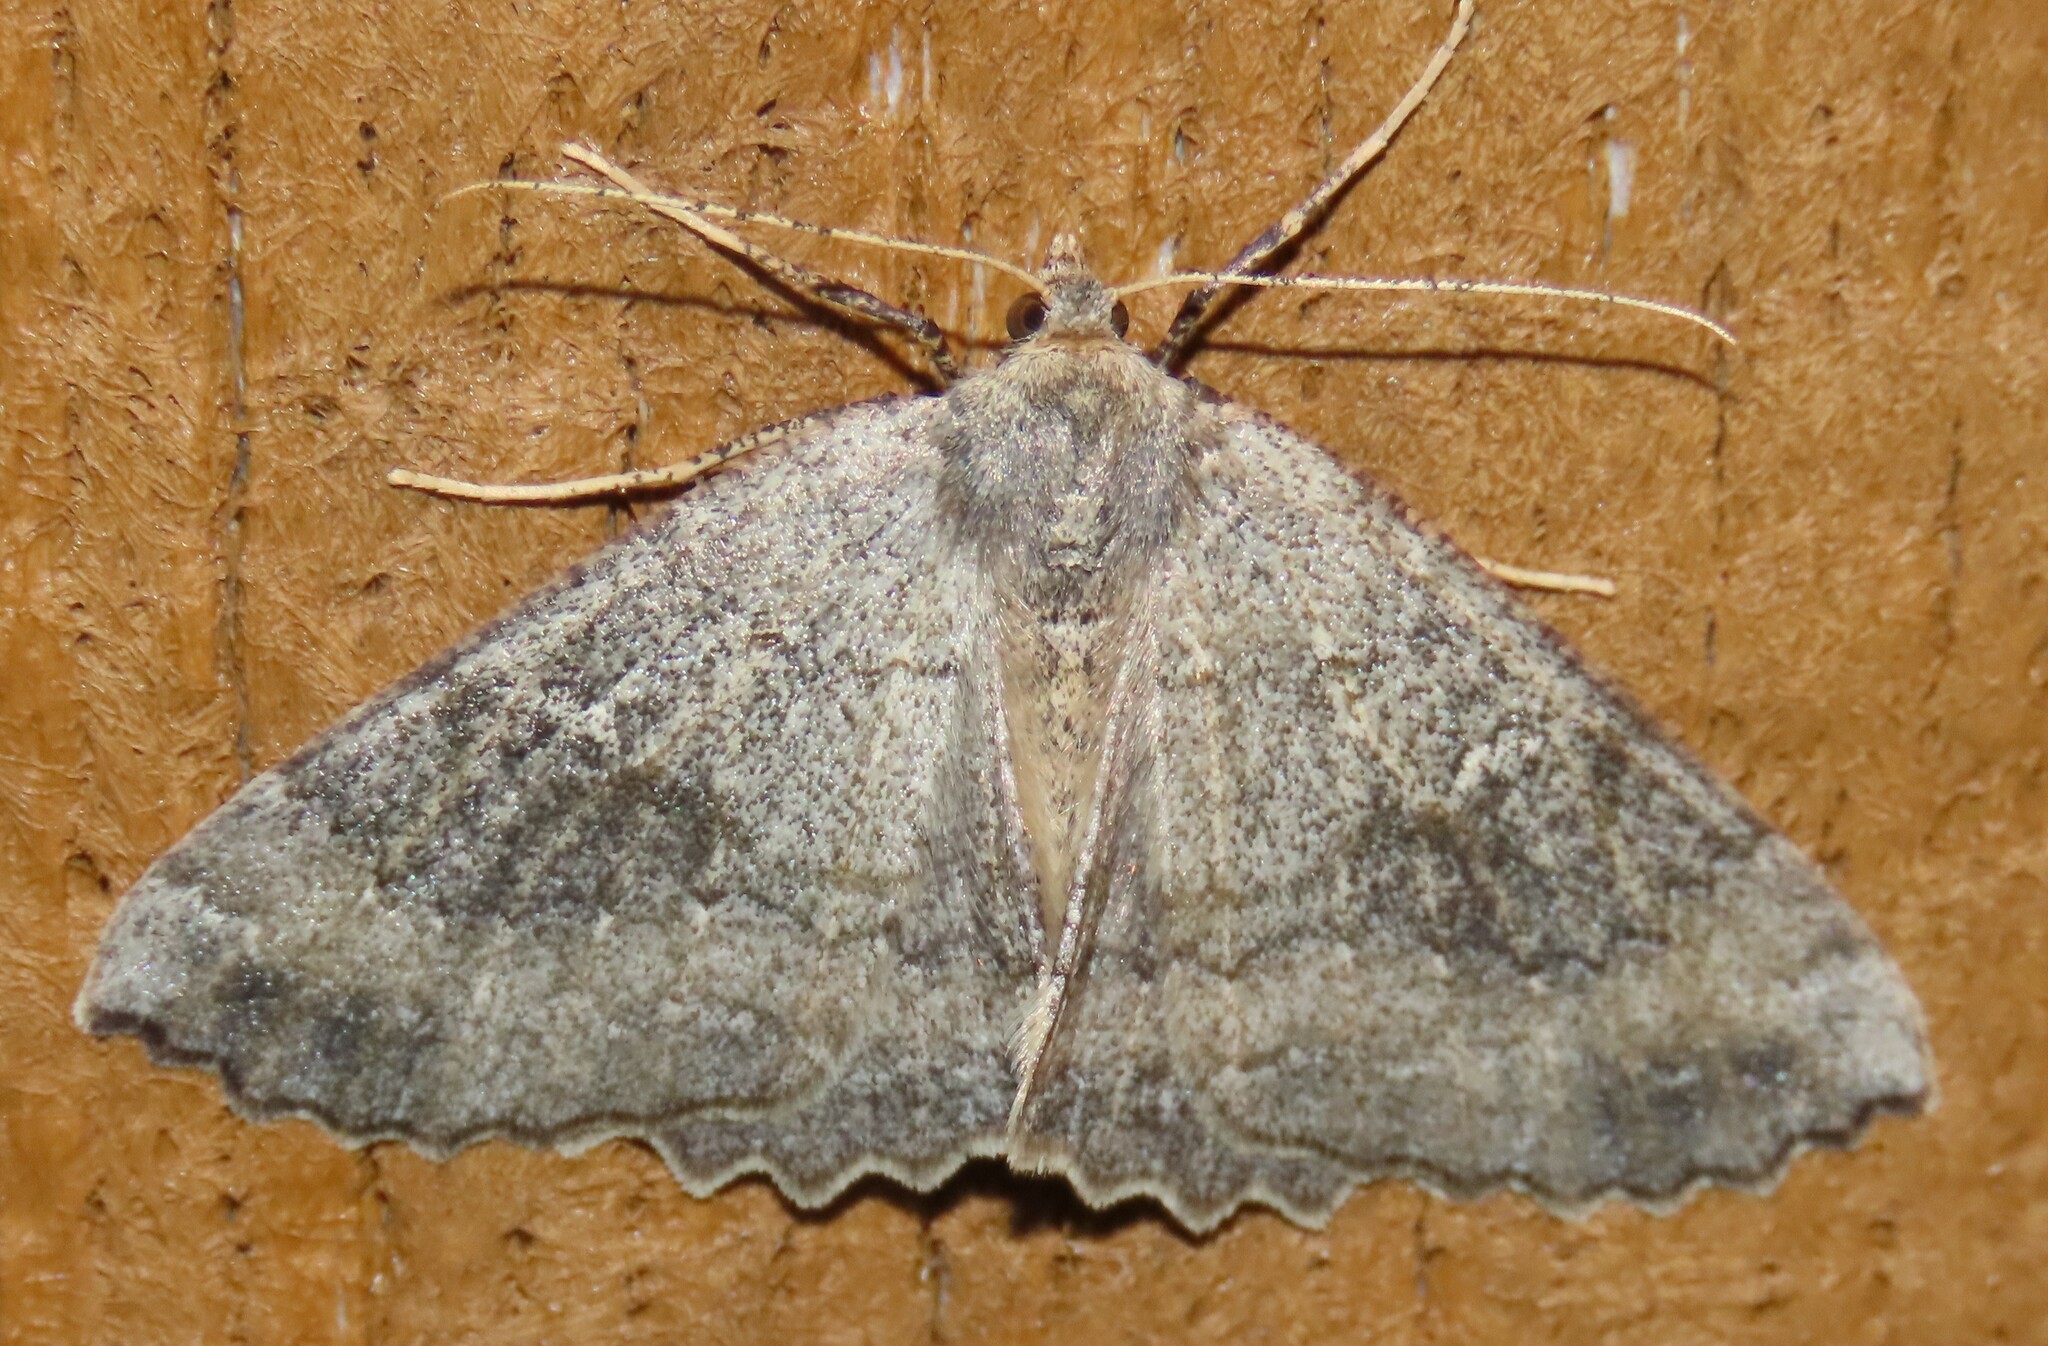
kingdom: Animalia
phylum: Arthropoda
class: Insecta
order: Lepidoptera
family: Geometridae
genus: Cleora
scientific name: Cleora scriptaria
